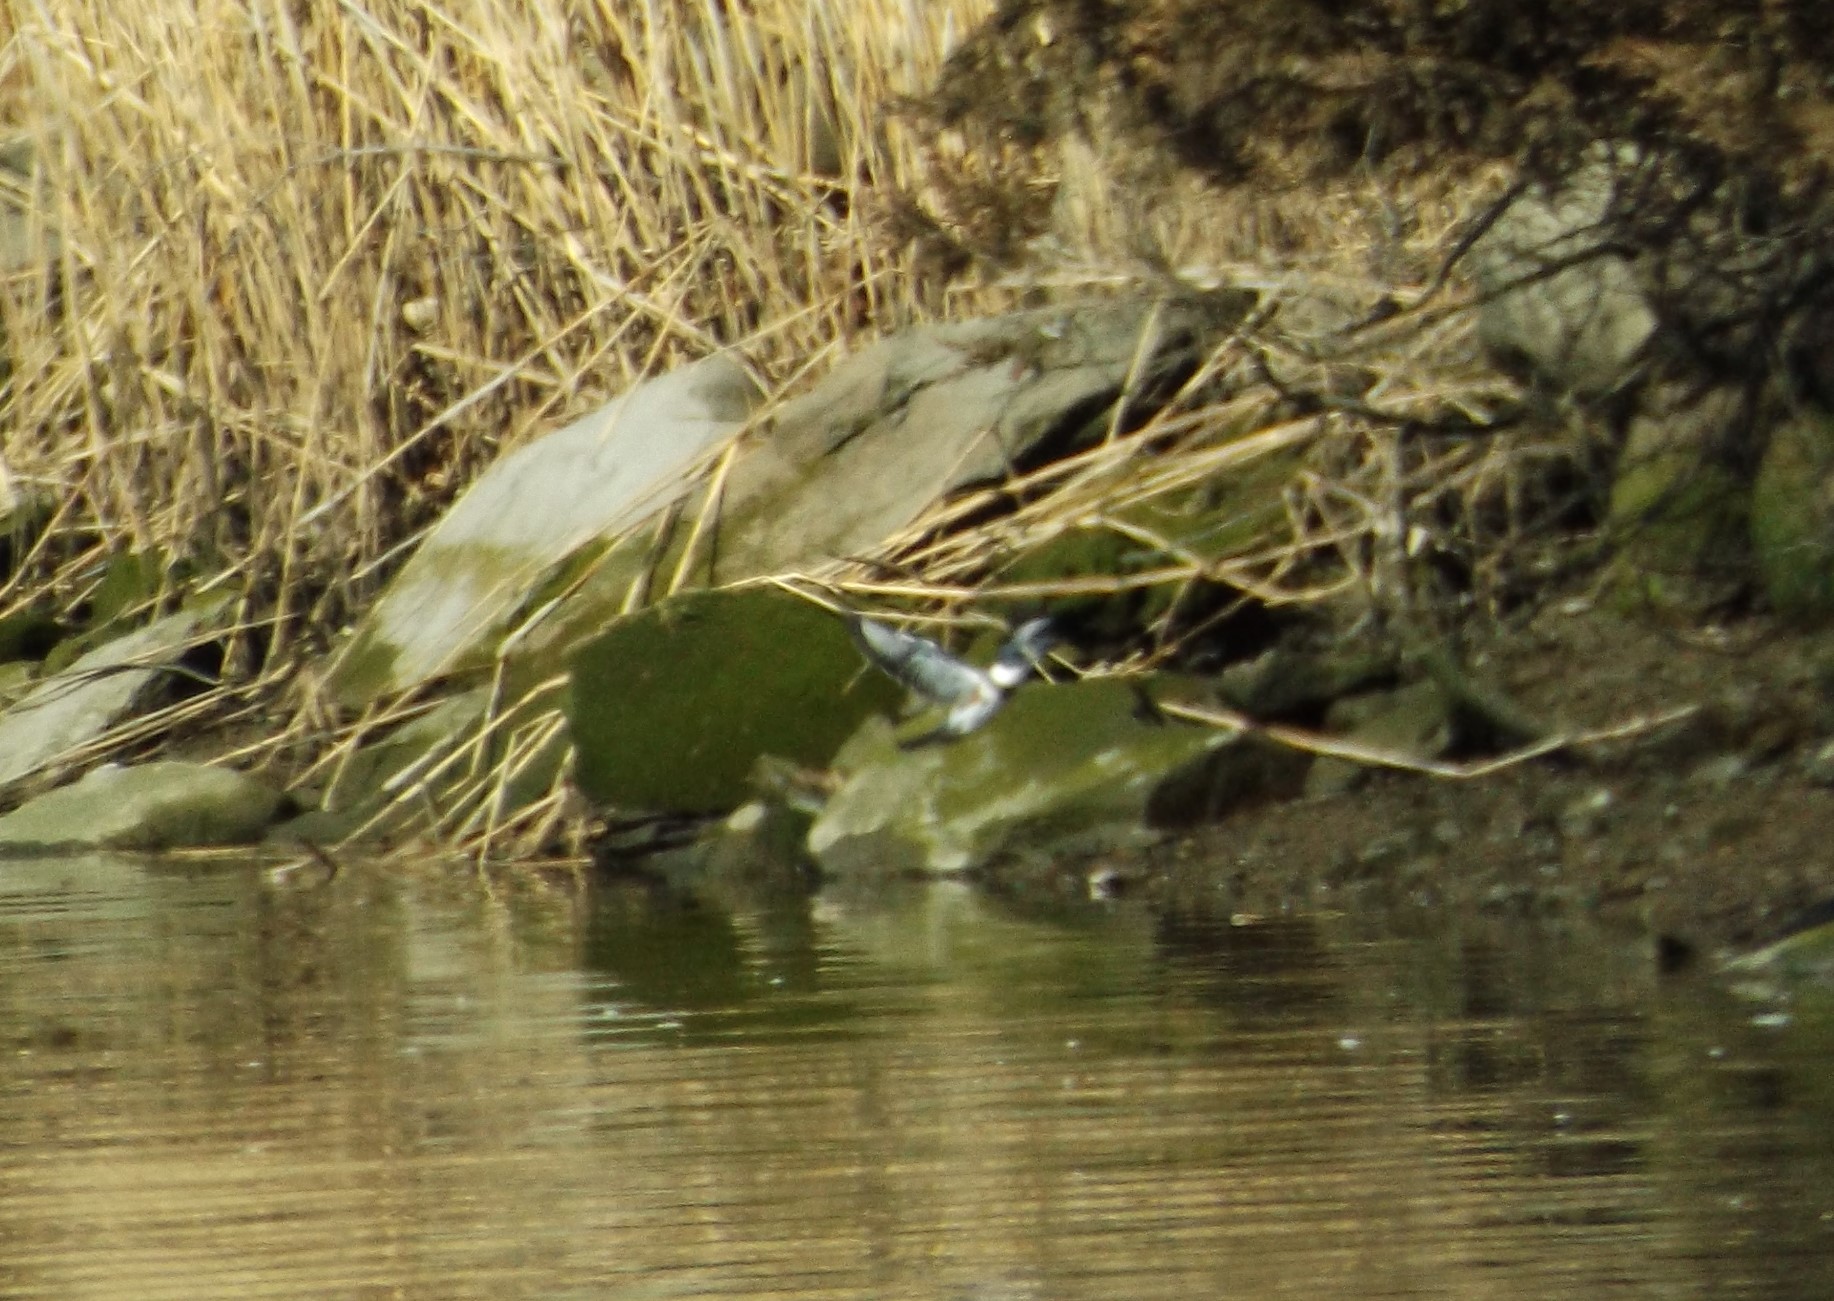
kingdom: Animalia
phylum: Chordata
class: Aves
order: Coraciiformes
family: Alcedinidae
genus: Megaceryle
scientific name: Megaceryle alcyon
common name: Belted kingfisher
